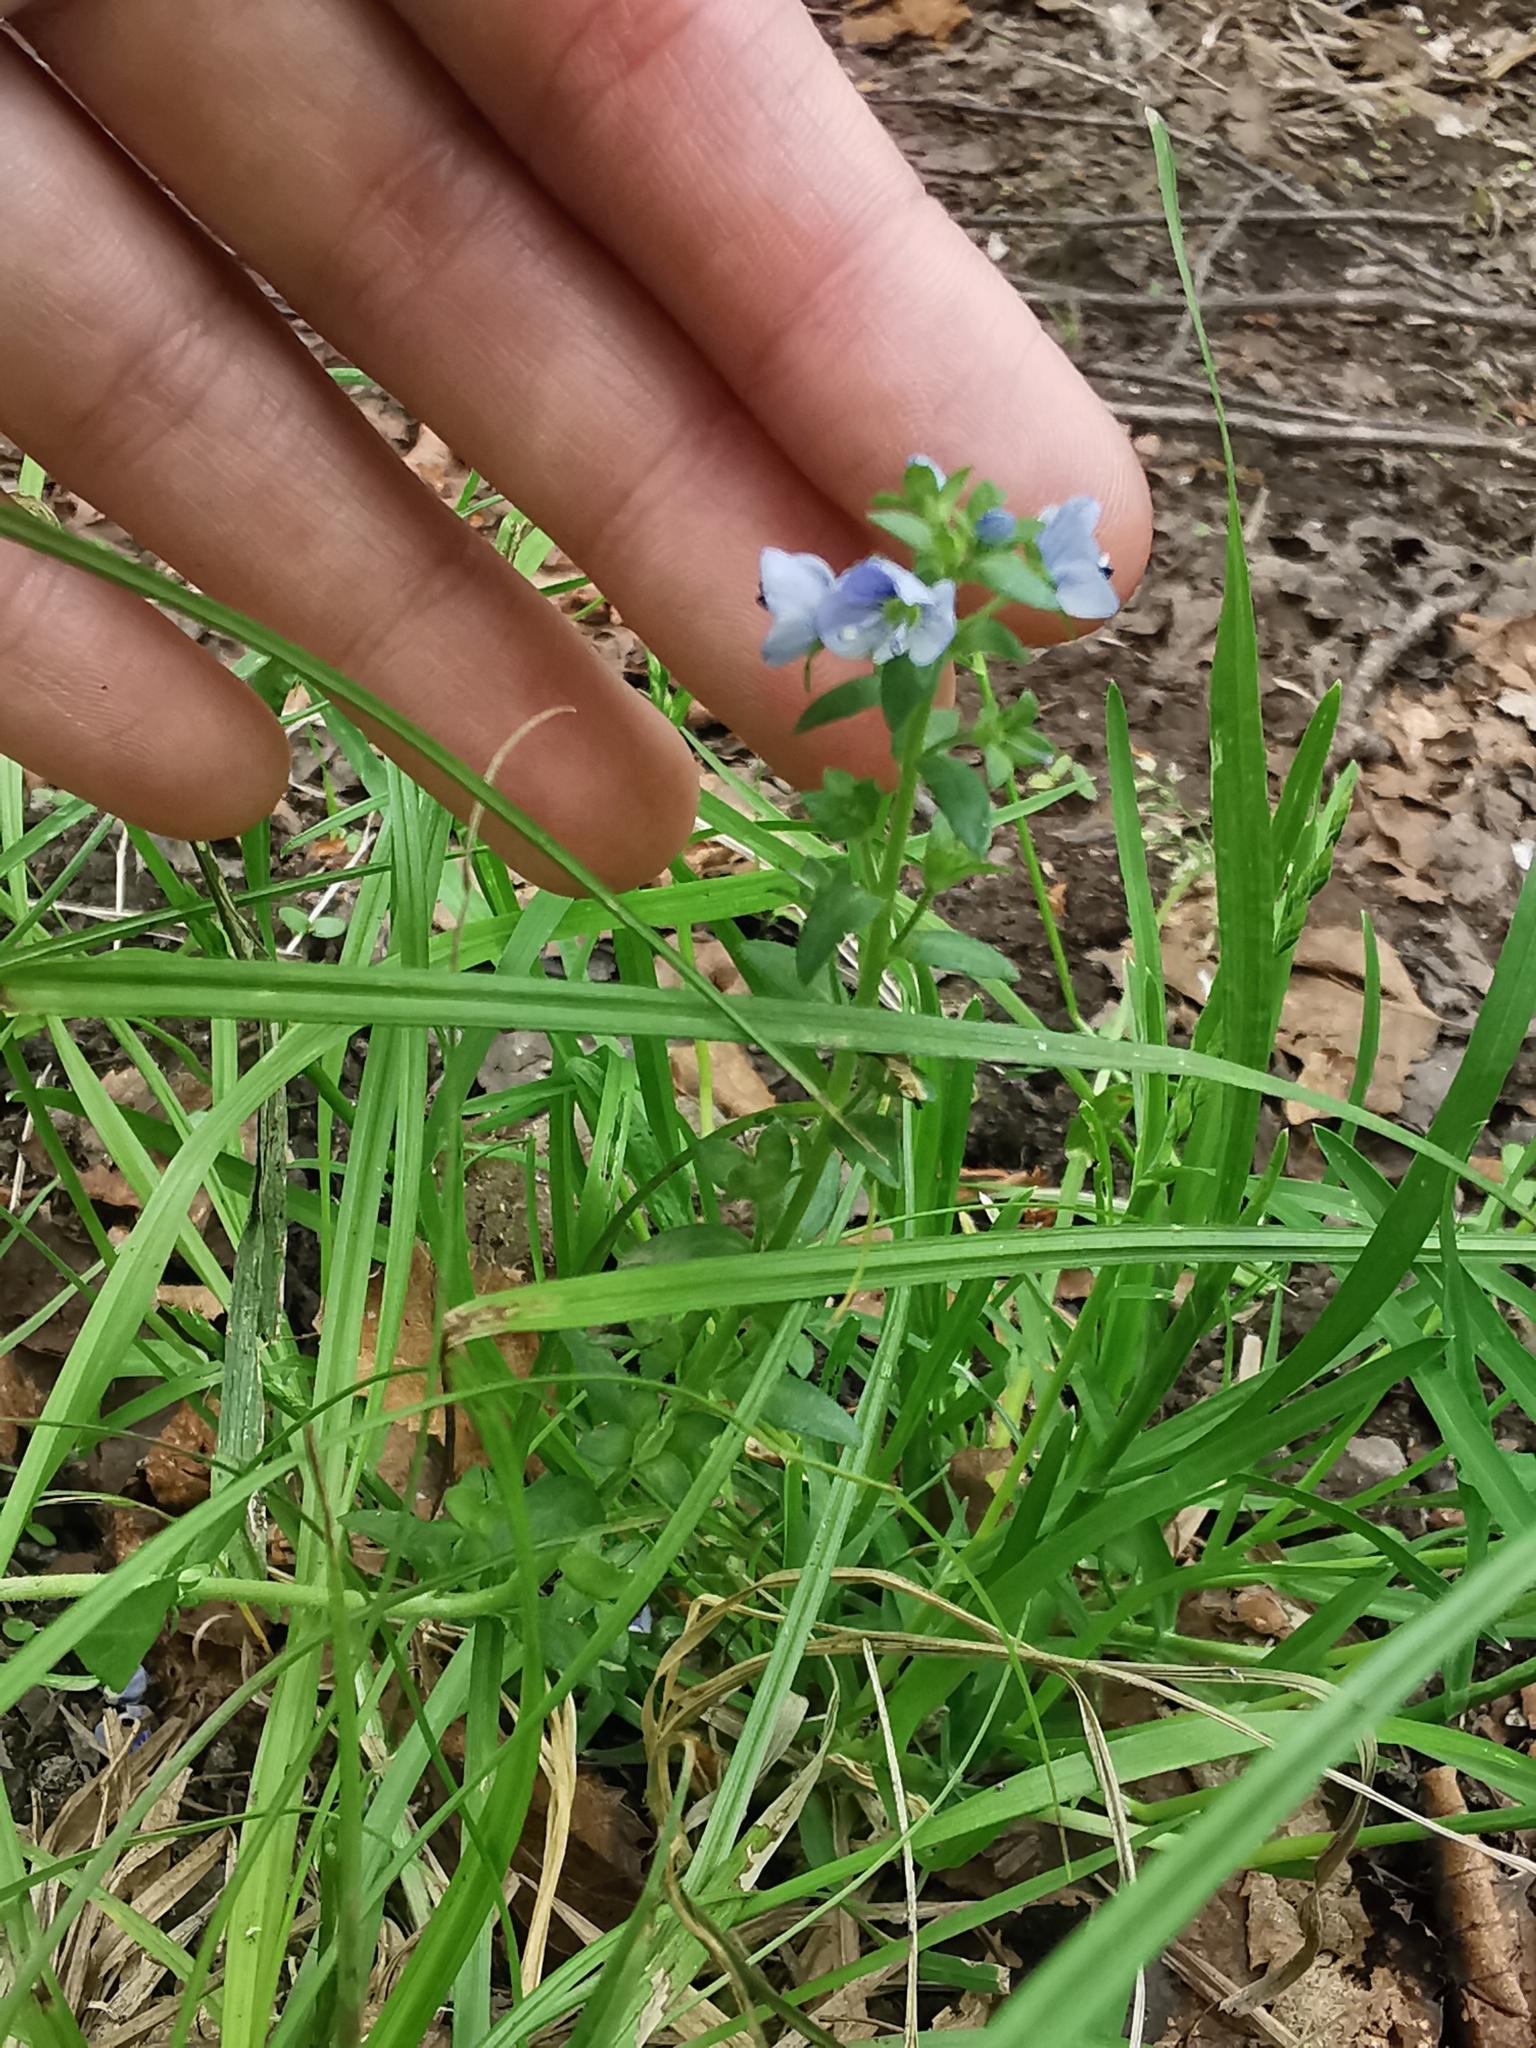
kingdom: Plantae
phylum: Tracheophyta
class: Magnoliopsida
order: Lamiales
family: Plantaginaceae
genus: Veronica
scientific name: Veronica serpyllifolia
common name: Thyme-leaved speedwell
